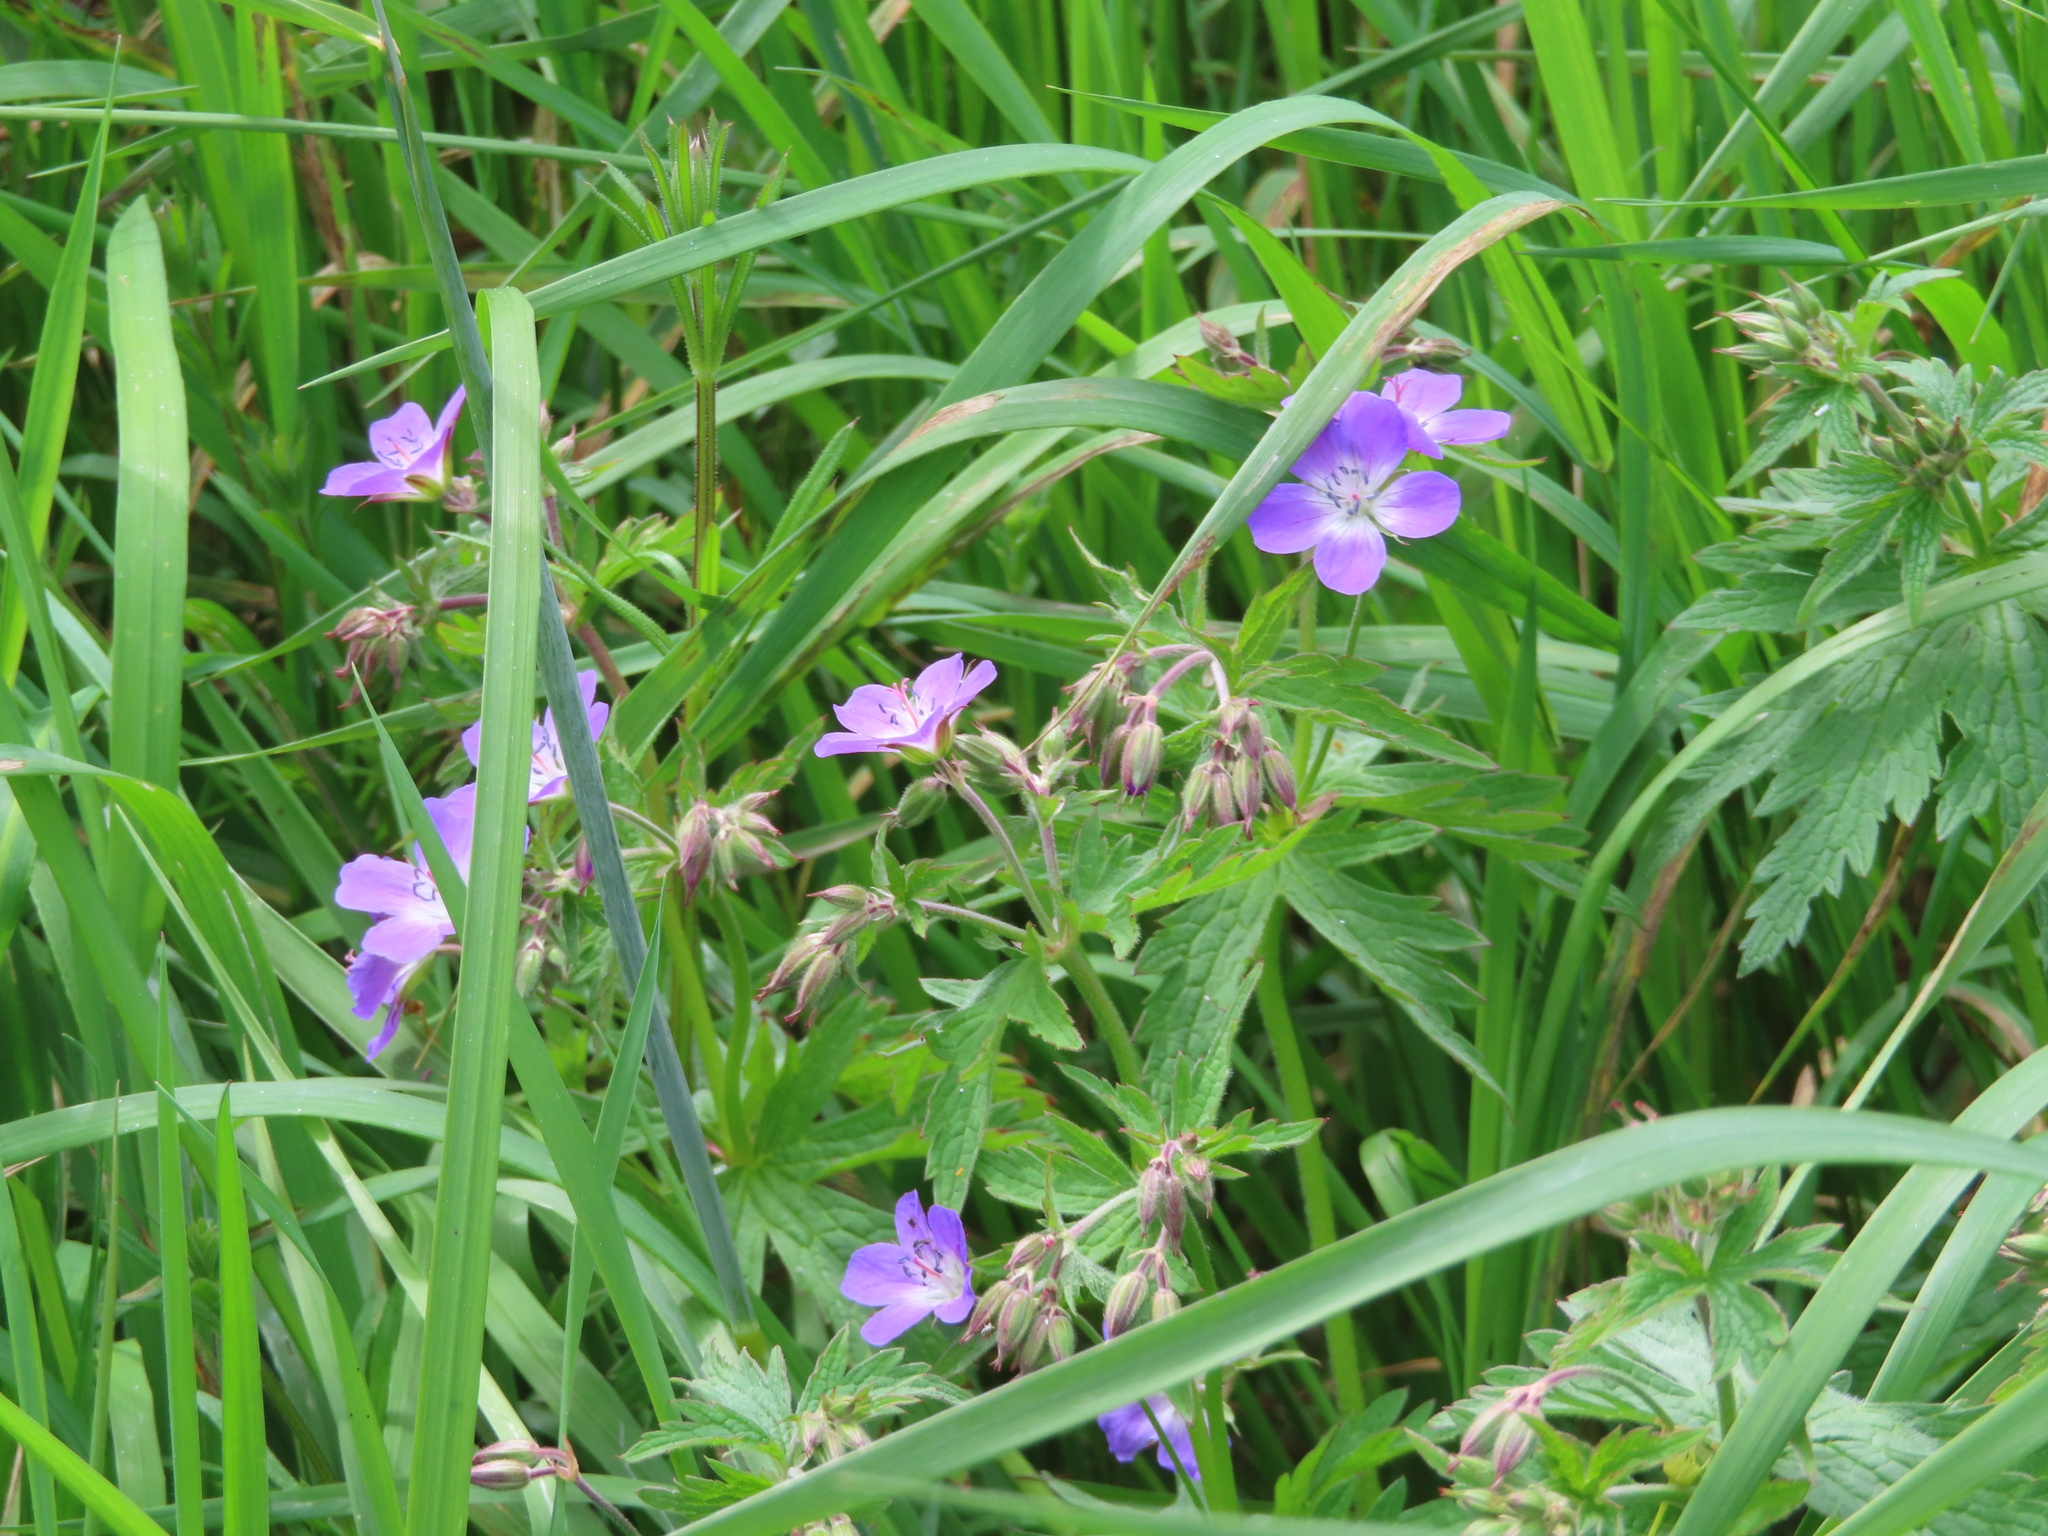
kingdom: Plantae
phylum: Tracheophyta
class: Magnoliopsida
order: Geraniales
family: Geraniaceae
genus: Geranium
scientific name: Geranium sylvaticum
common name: Wood crane's-bill
